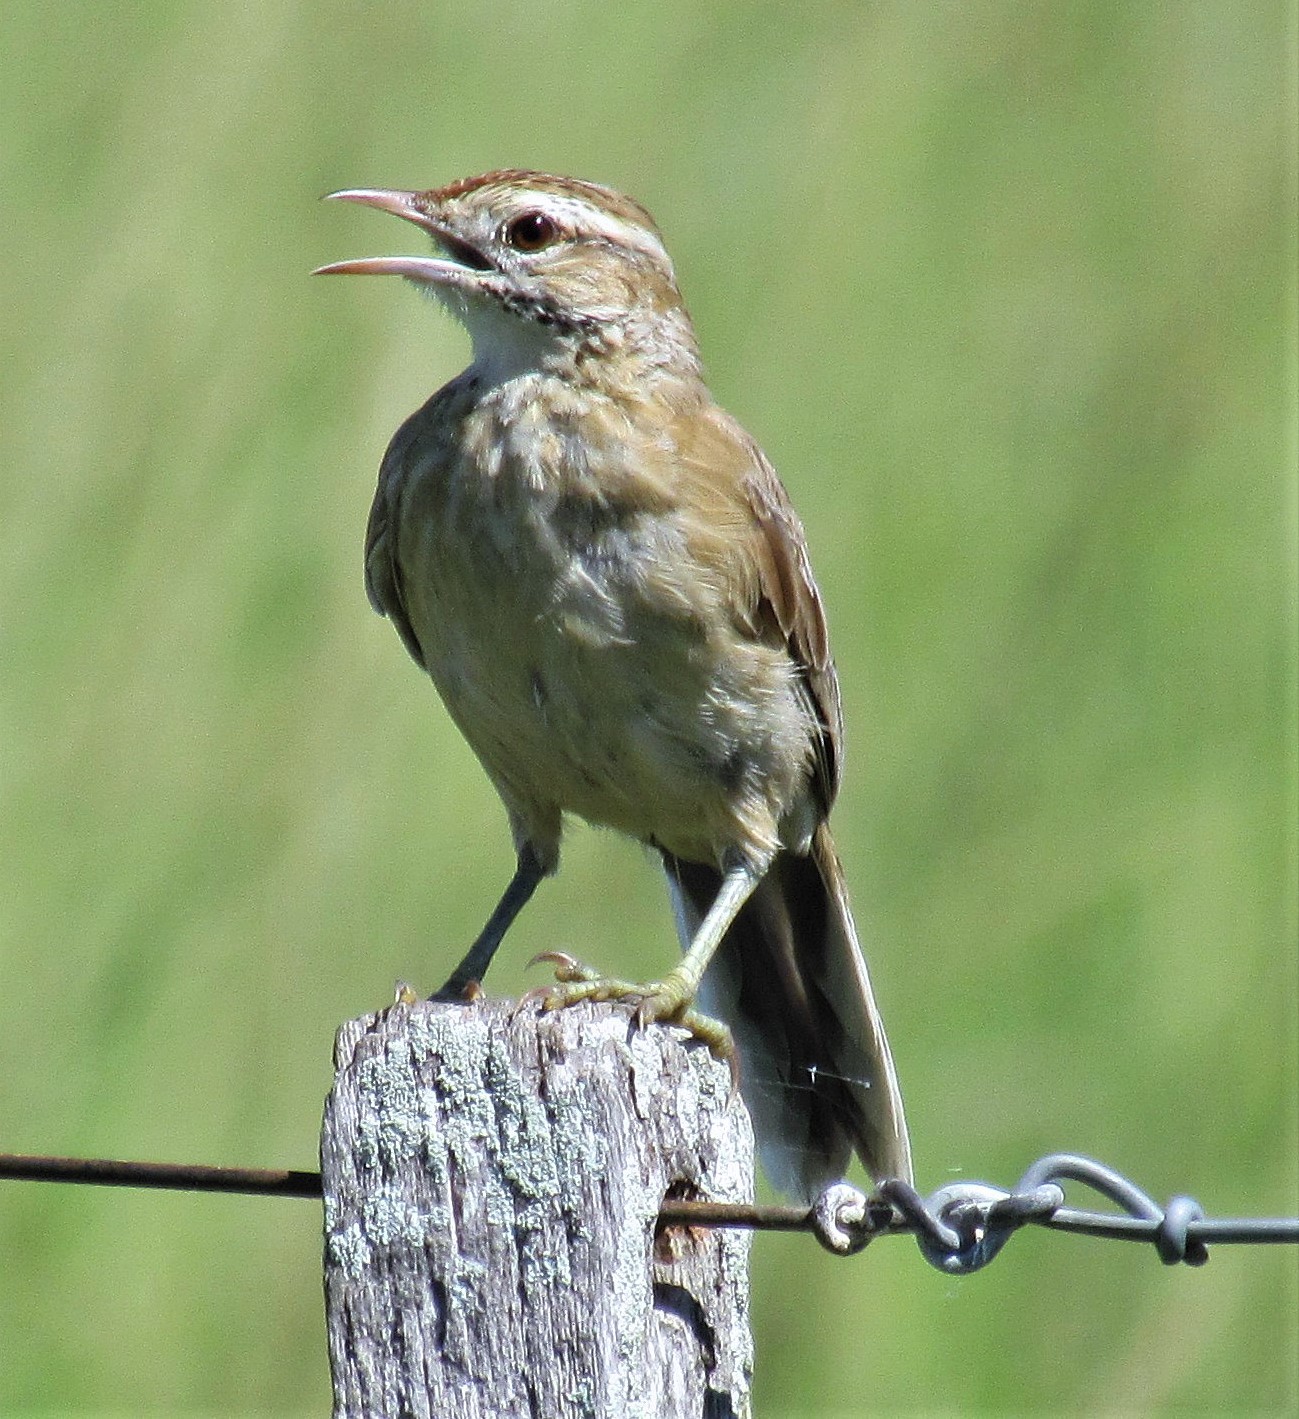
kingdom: Animalia
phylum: Chordata
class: Aves
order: Passeriformes
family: Furnariidae
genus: Anumbius
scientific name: Anumbius annumbi
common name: Firewood-gatherer
